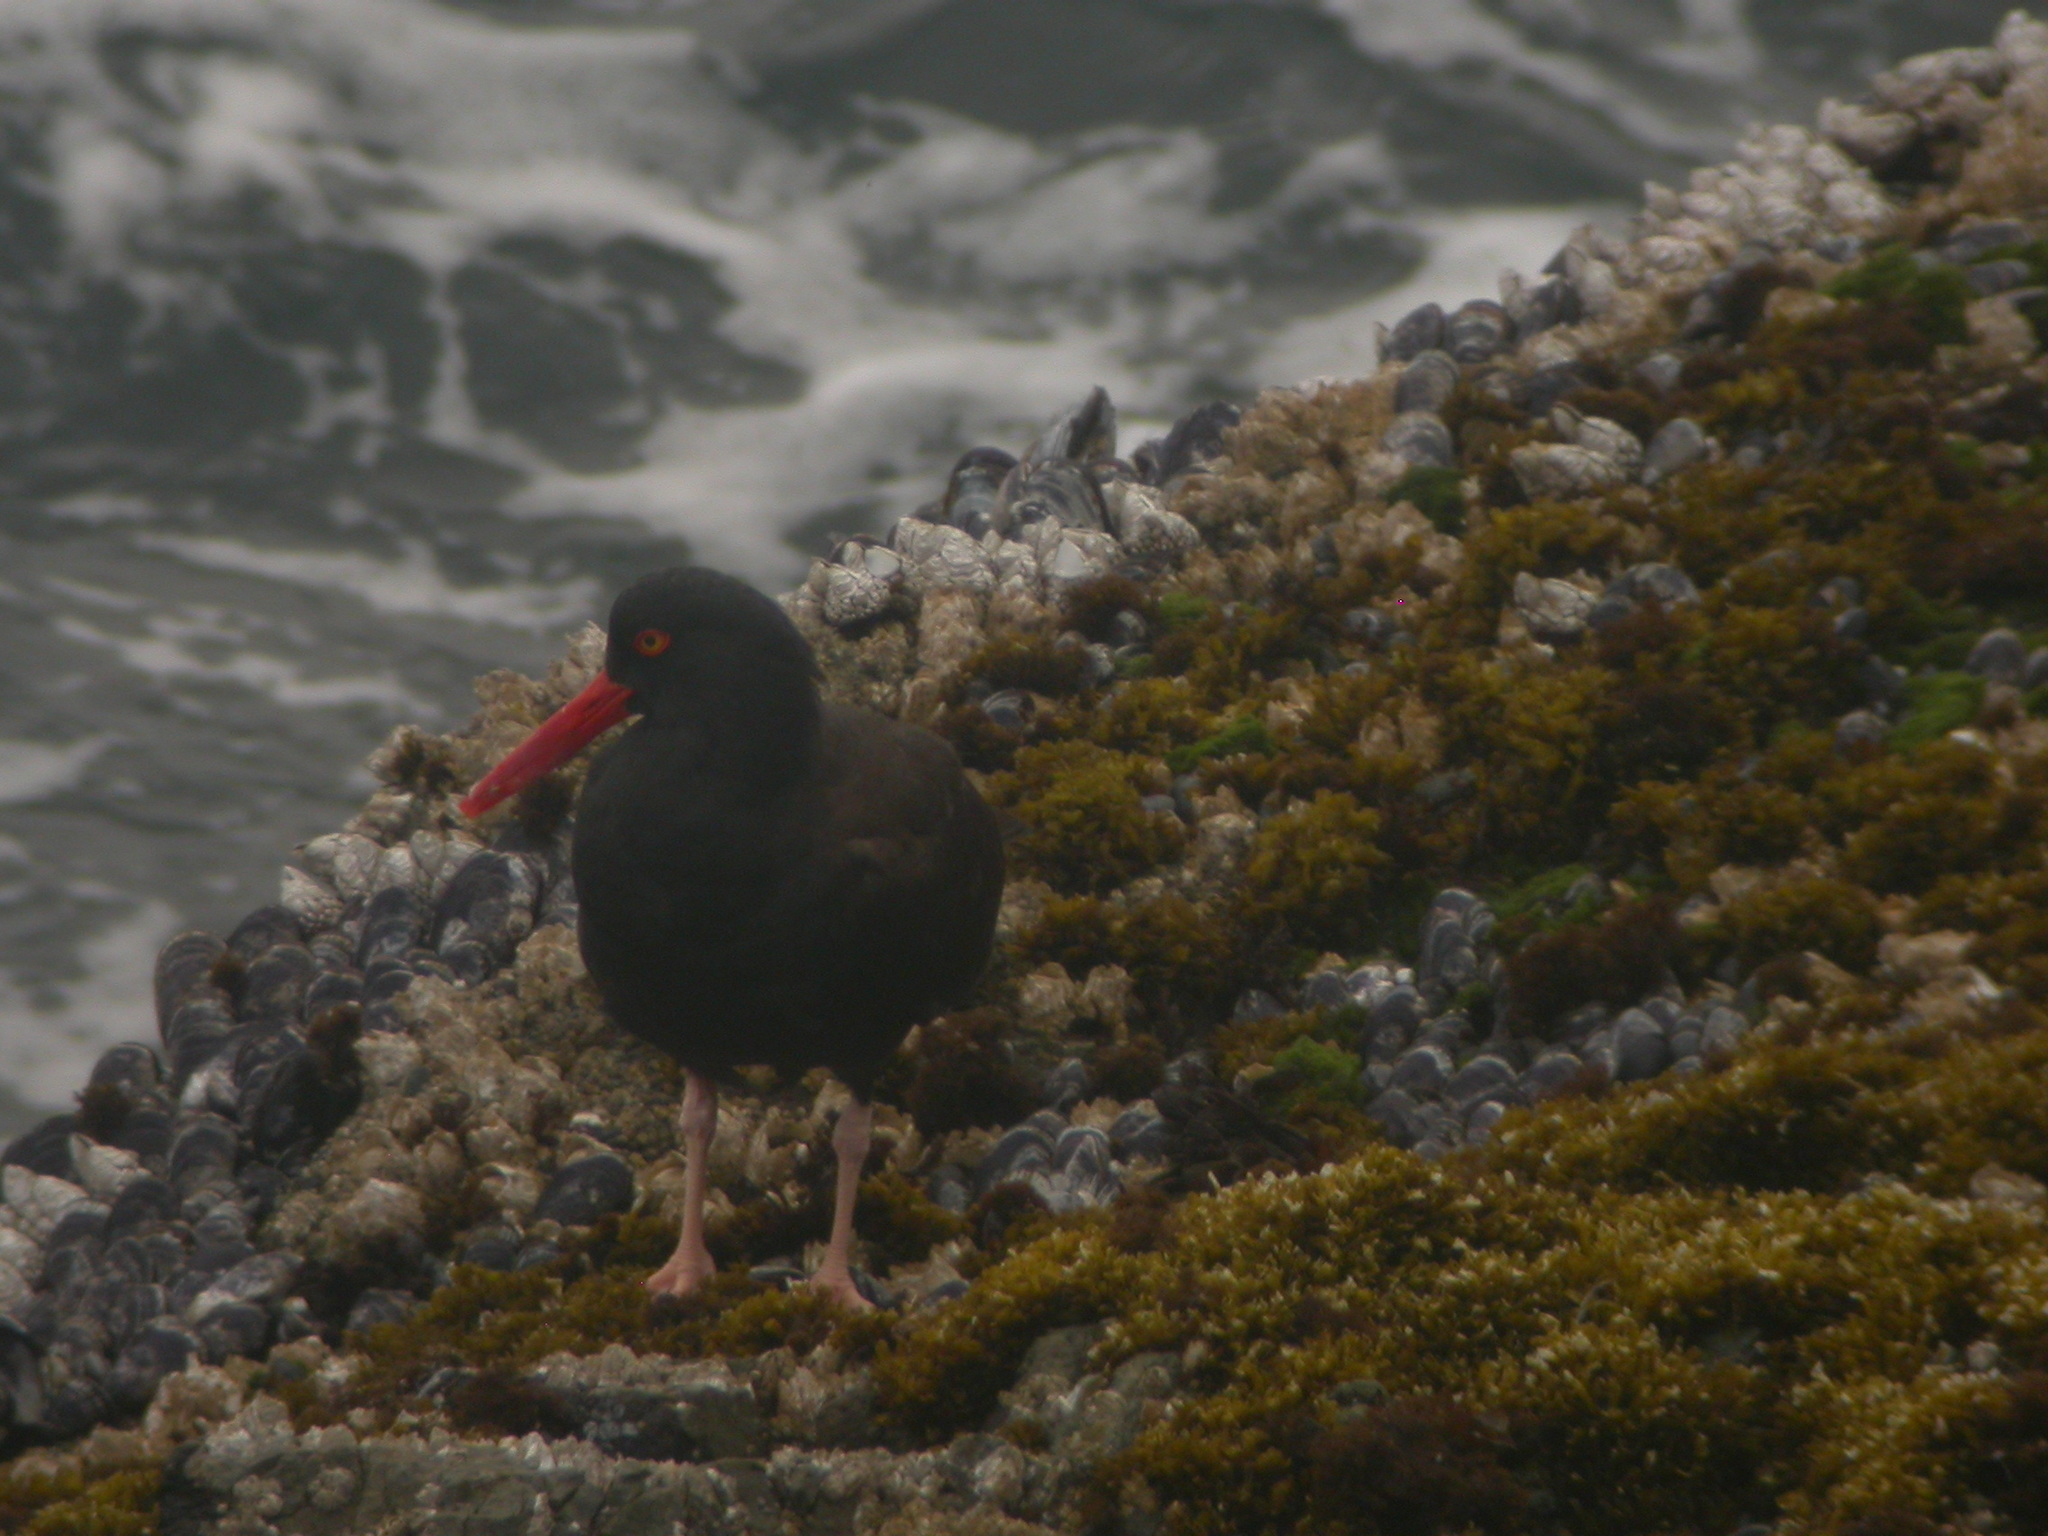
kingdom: Animalia
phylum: Chordata
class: Aves
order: Charadriiformes
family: Haematopodidae
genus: Haematopus
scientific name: Haematopus bachmani
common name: Black oystercatcher
